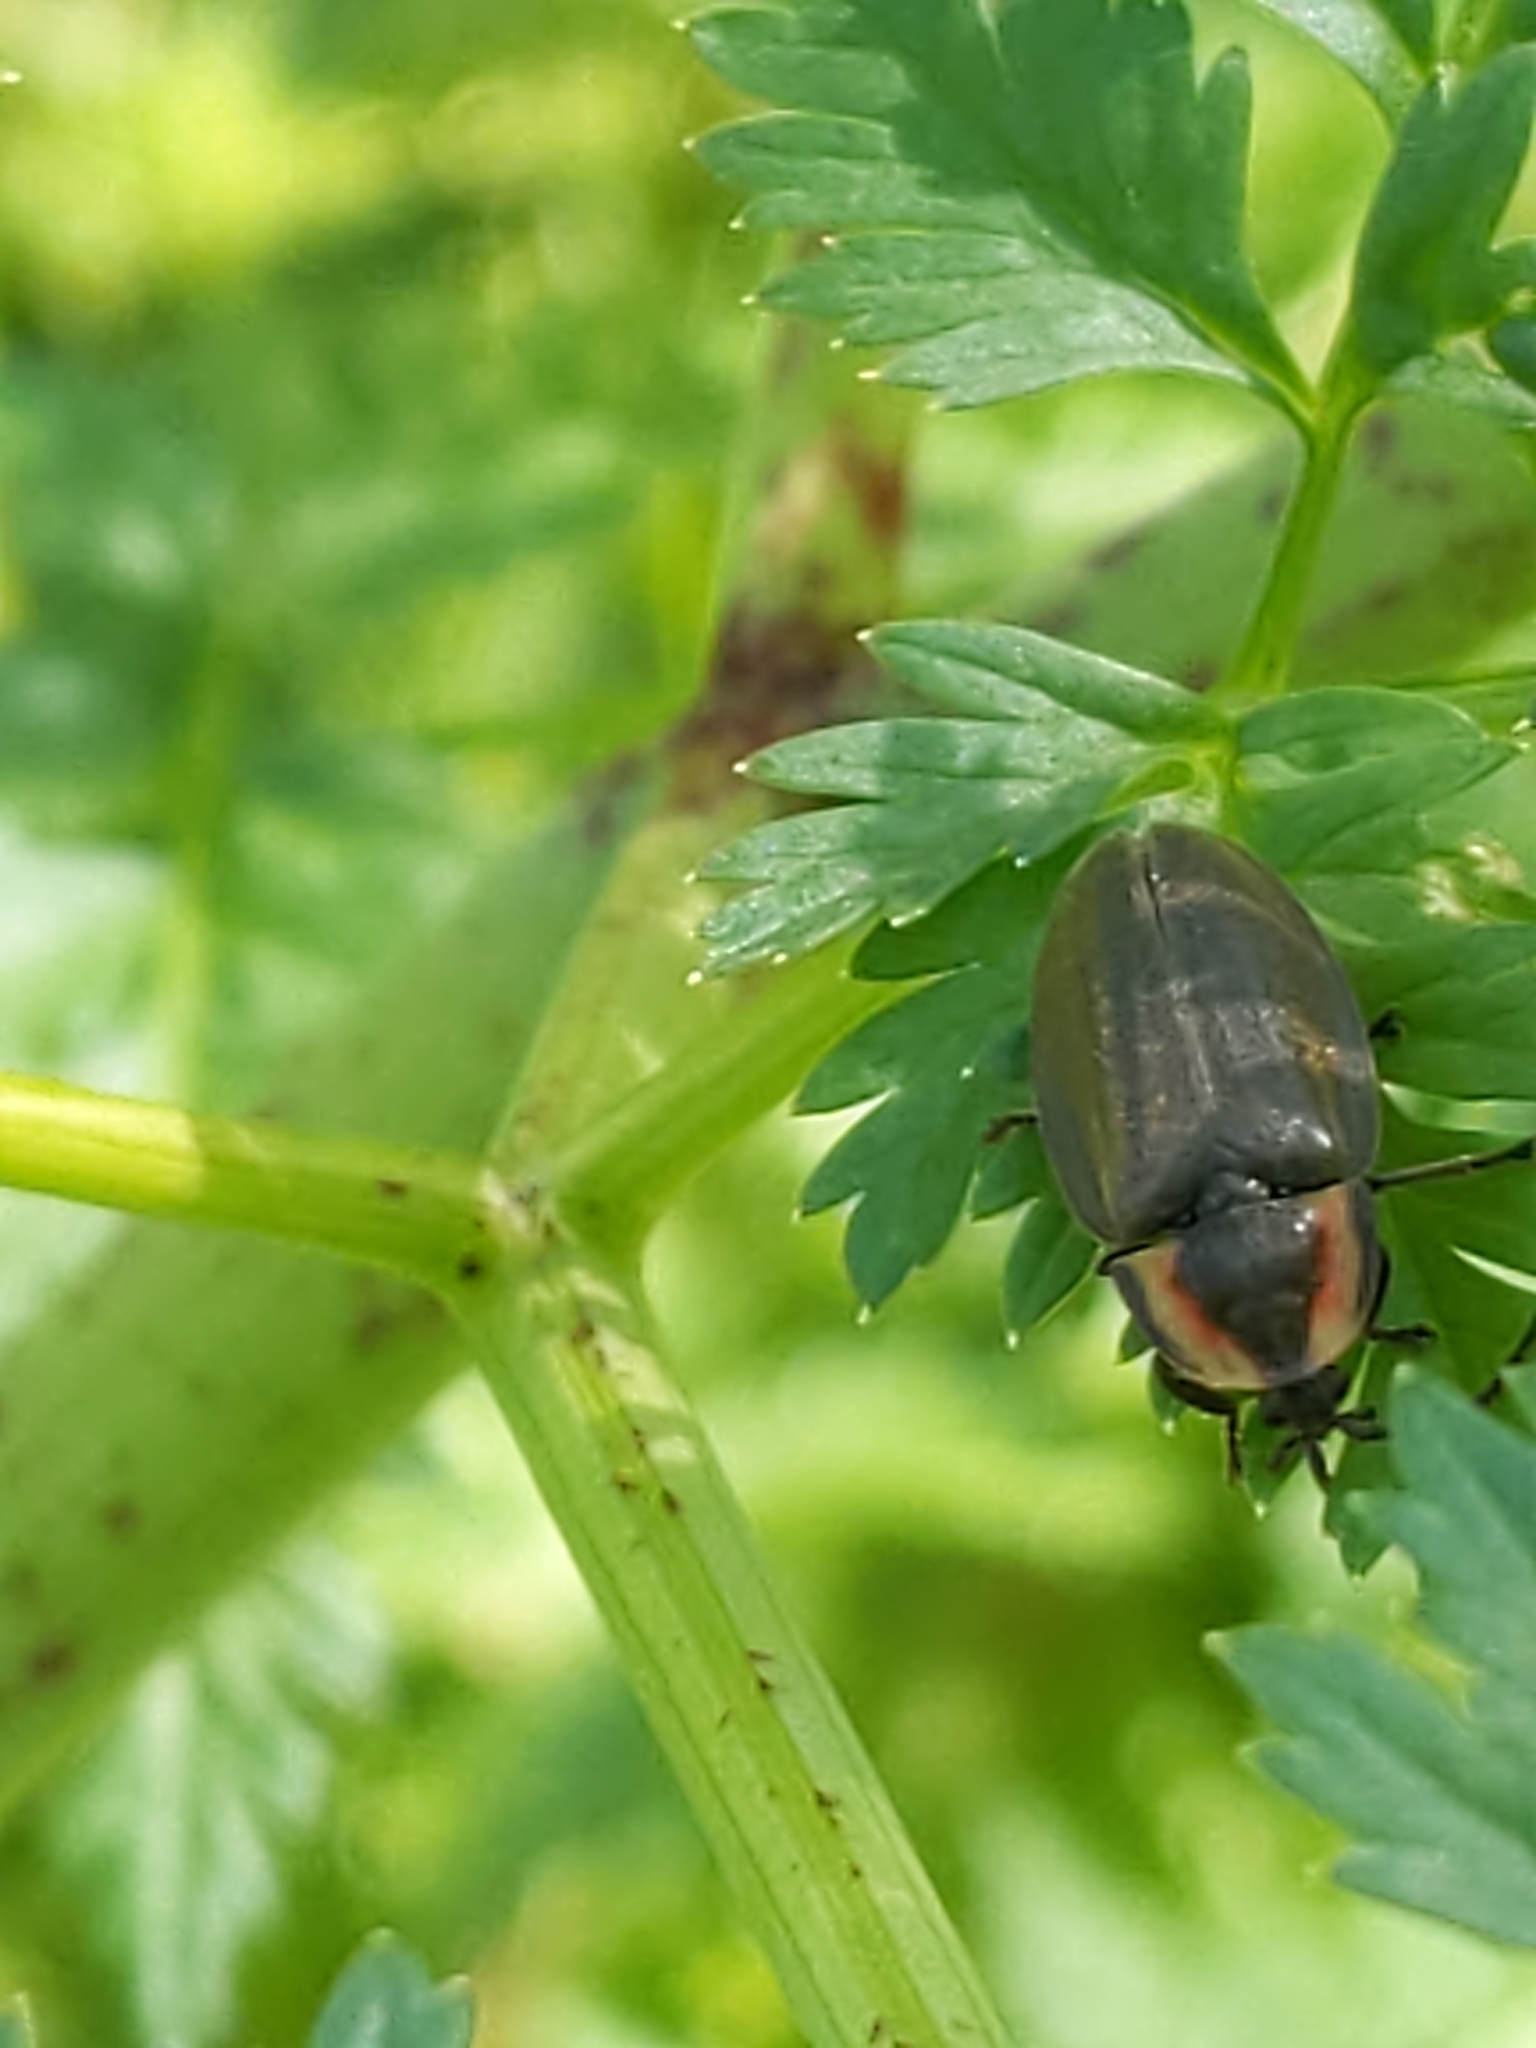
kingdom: Animalia
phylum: Arthropoda
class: Insecta
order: Coleoptera
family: Lampyridae
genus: Photinus
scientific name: Photinus corrusca
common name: Winter firefly
